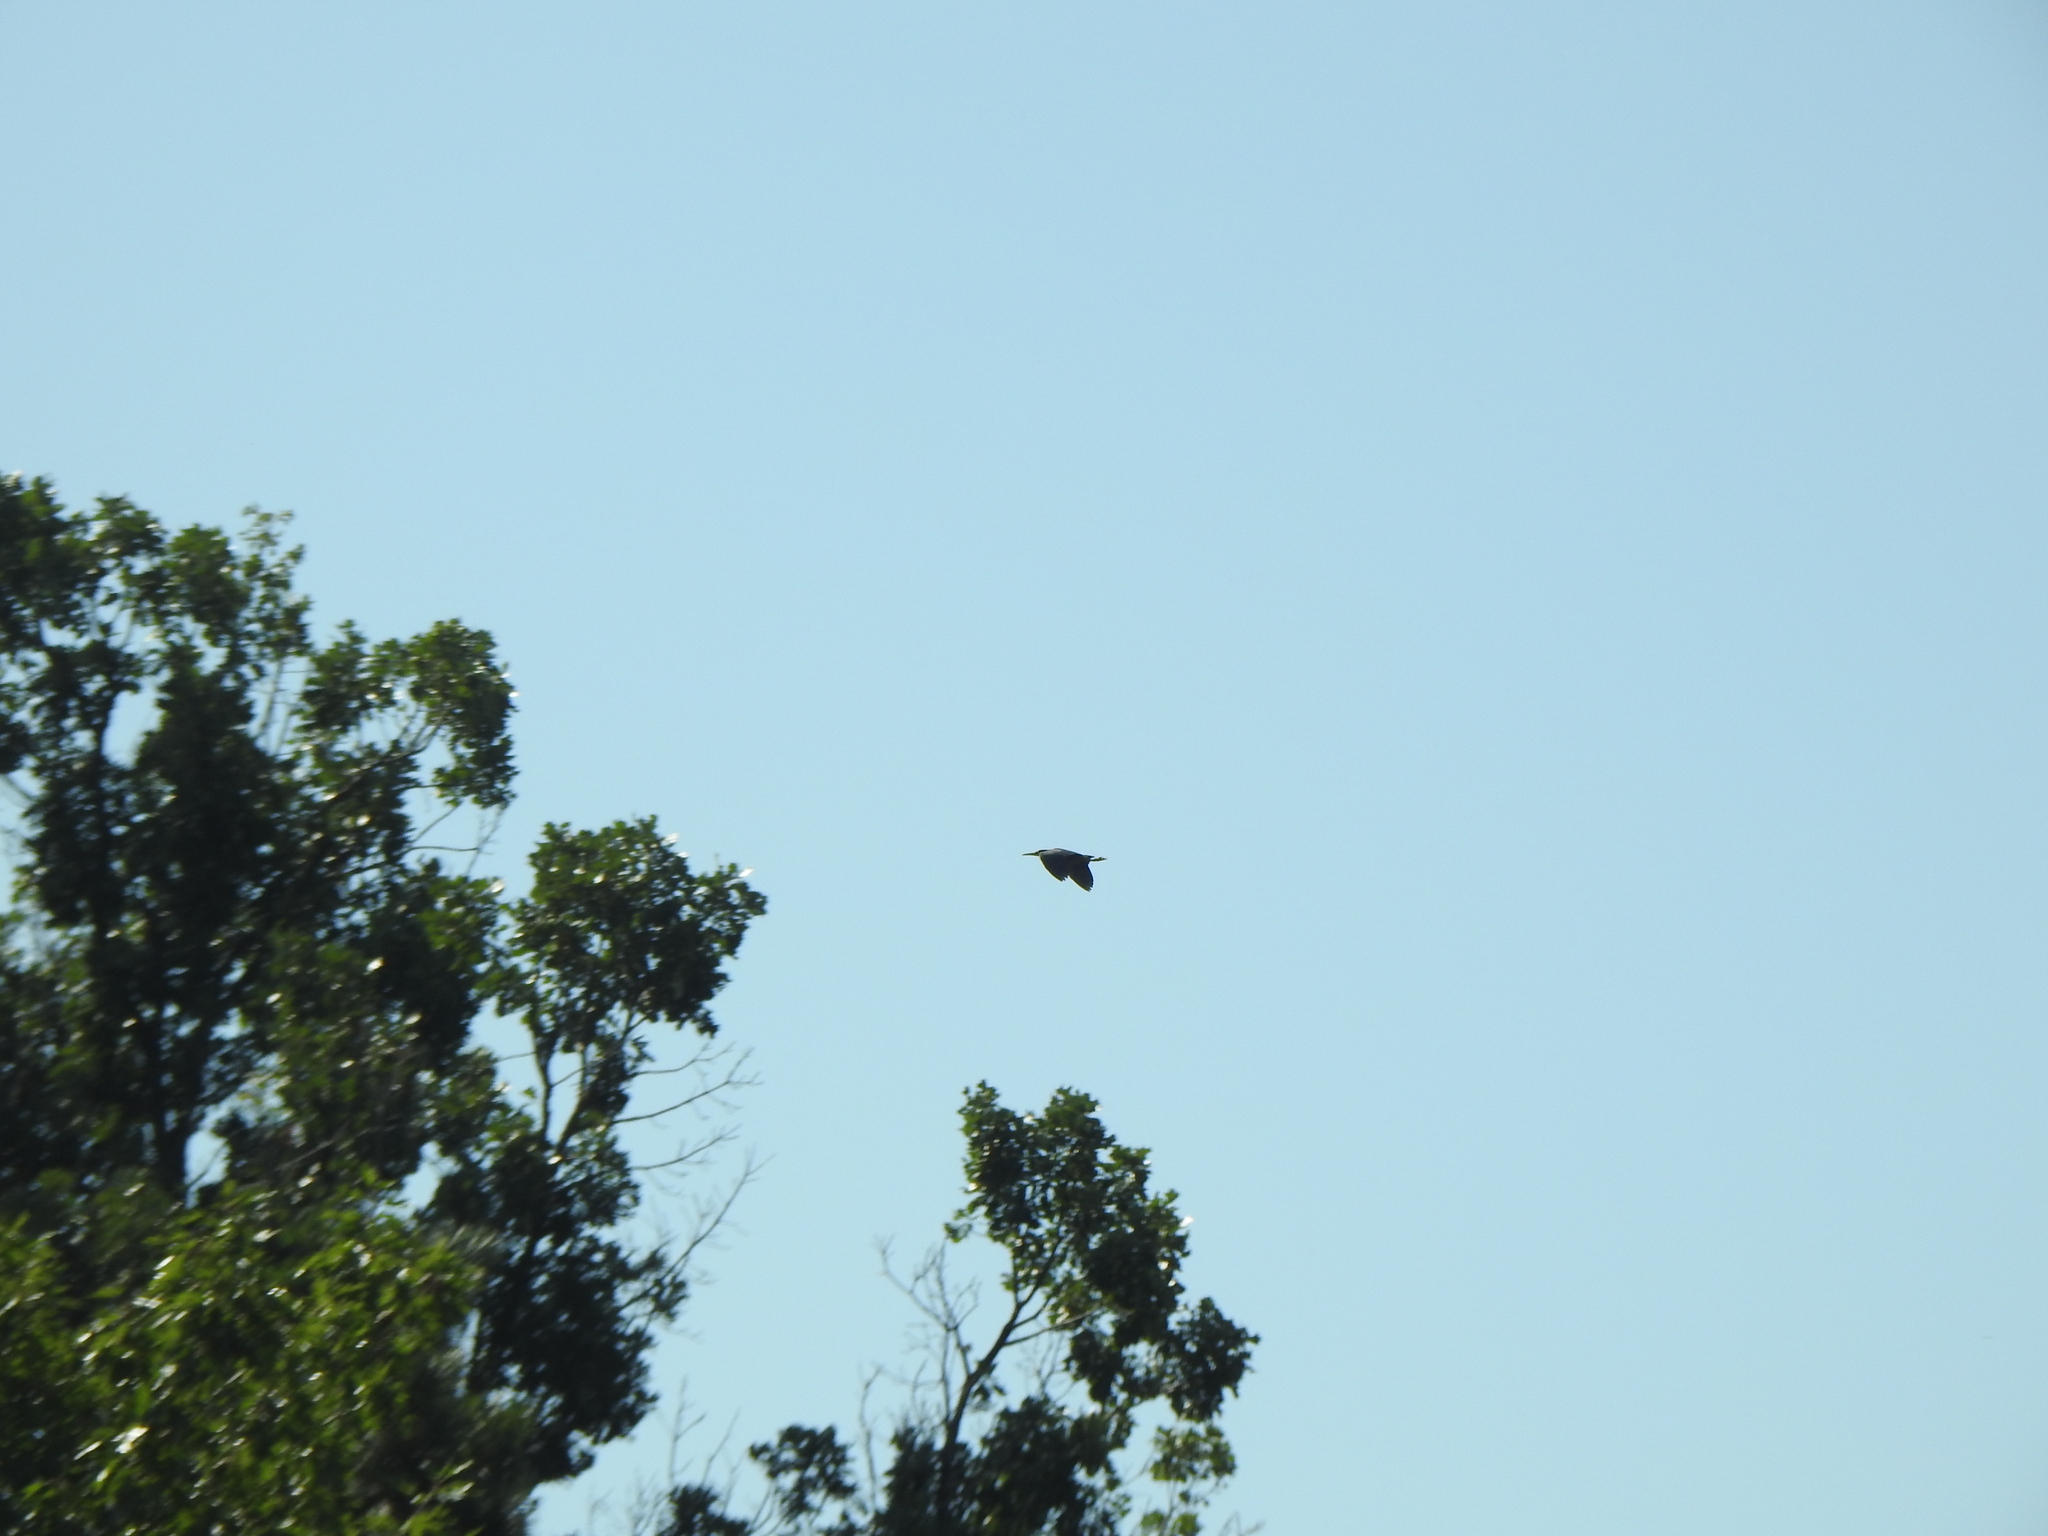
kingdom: Animalia
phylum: Chordata
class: Aves
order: Pelecaniformes
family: Ardeidae
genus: Butorides
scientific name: Butorides virescens
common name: Green heron
